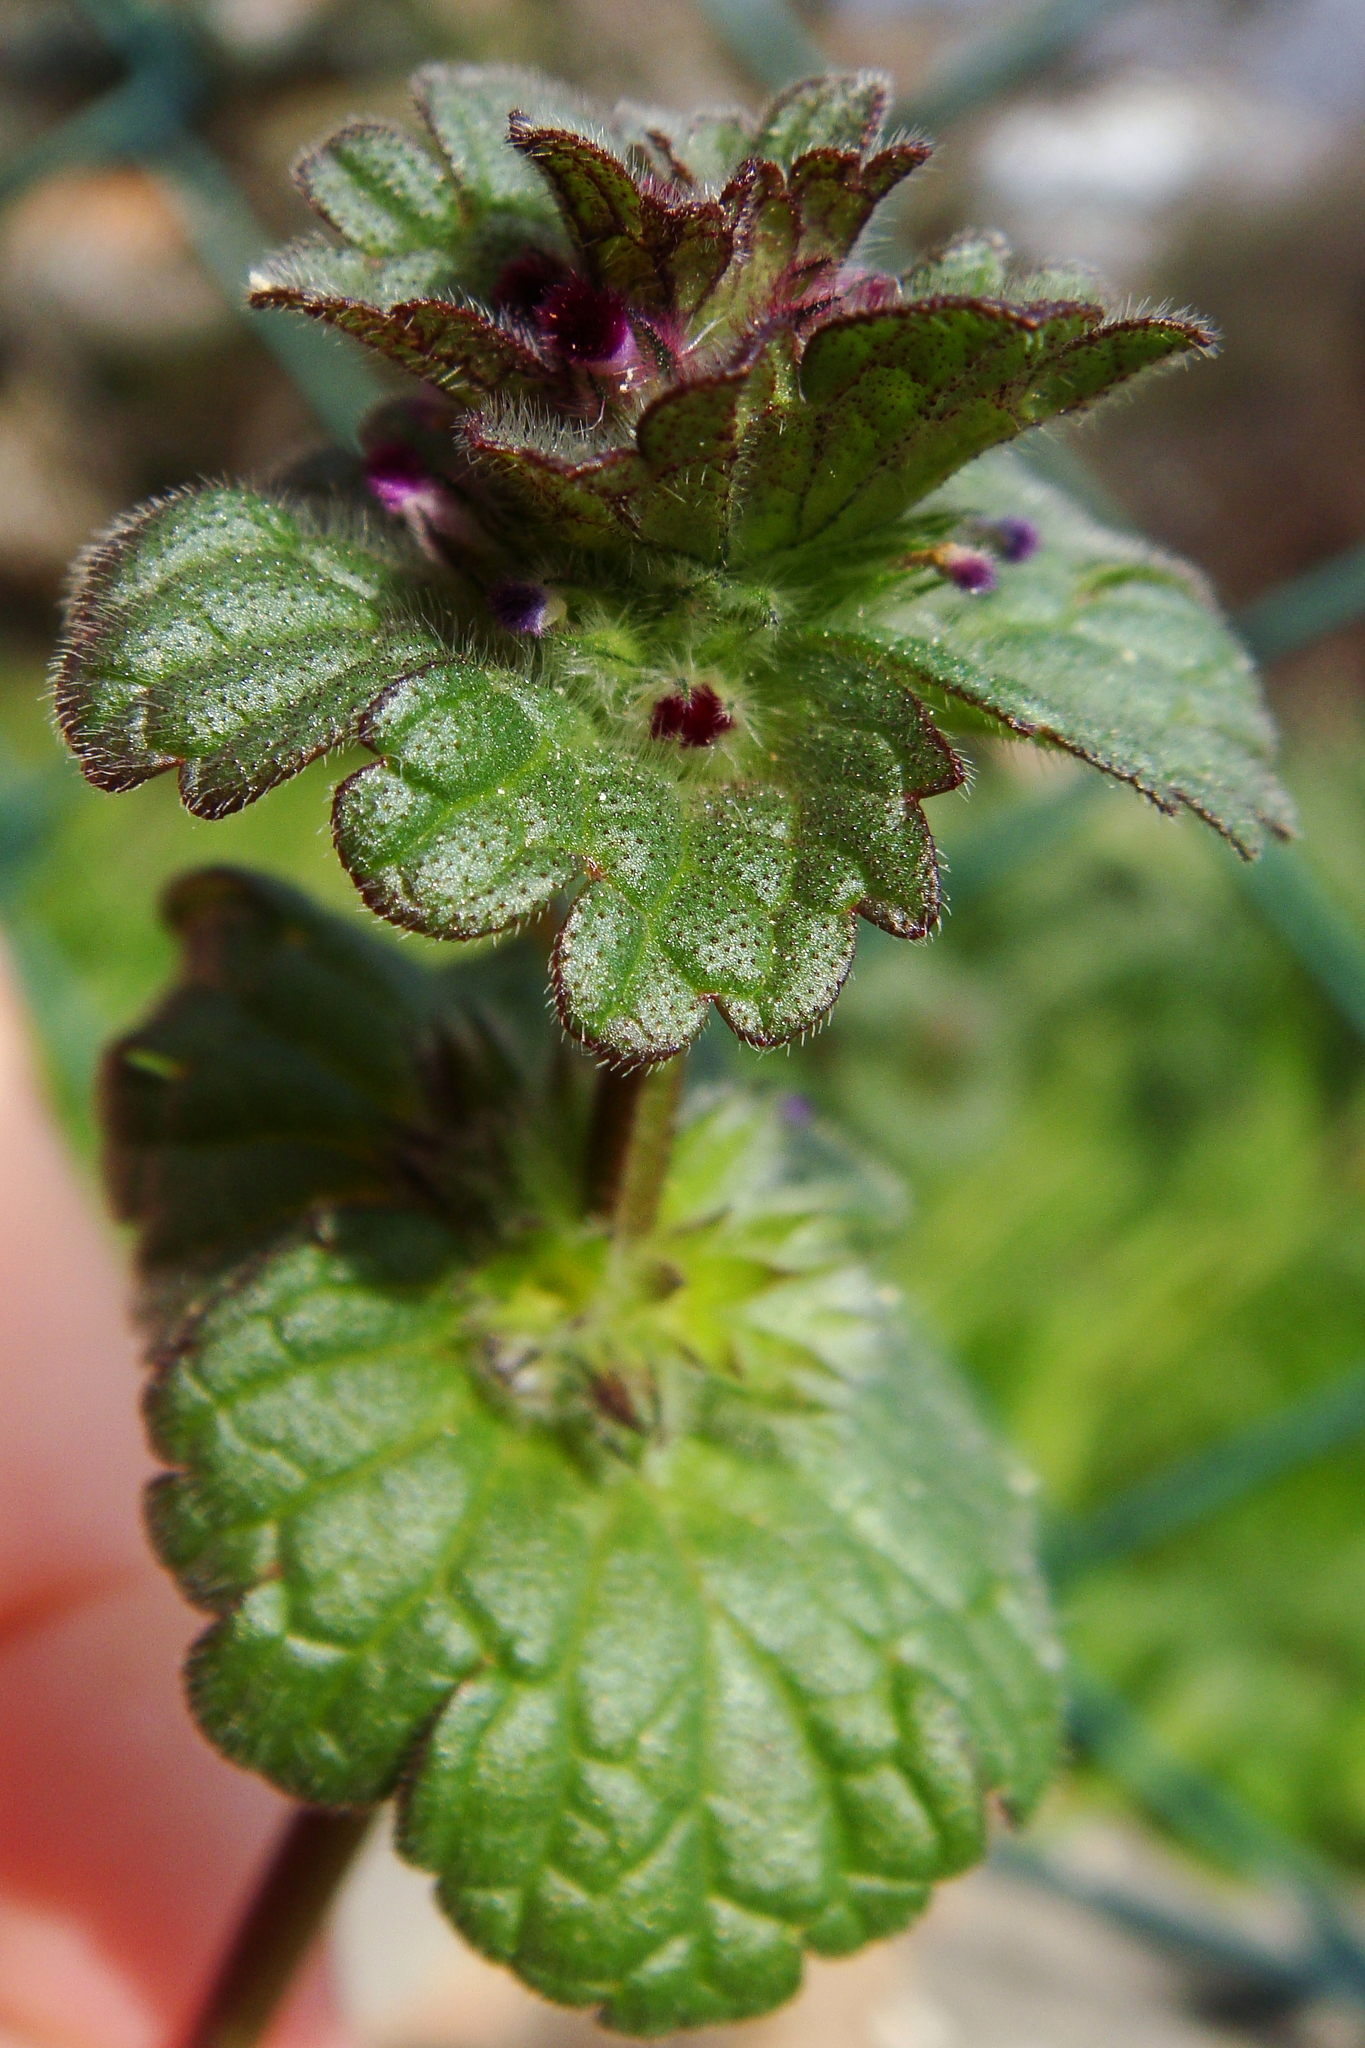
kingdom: Plantae
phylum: Tracheophyta
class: Magnoliopsida
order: Lamiales
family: Lamiaceae
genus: Lamium
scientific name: Lamium amplexicaule
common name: Henbit dead-nettle
